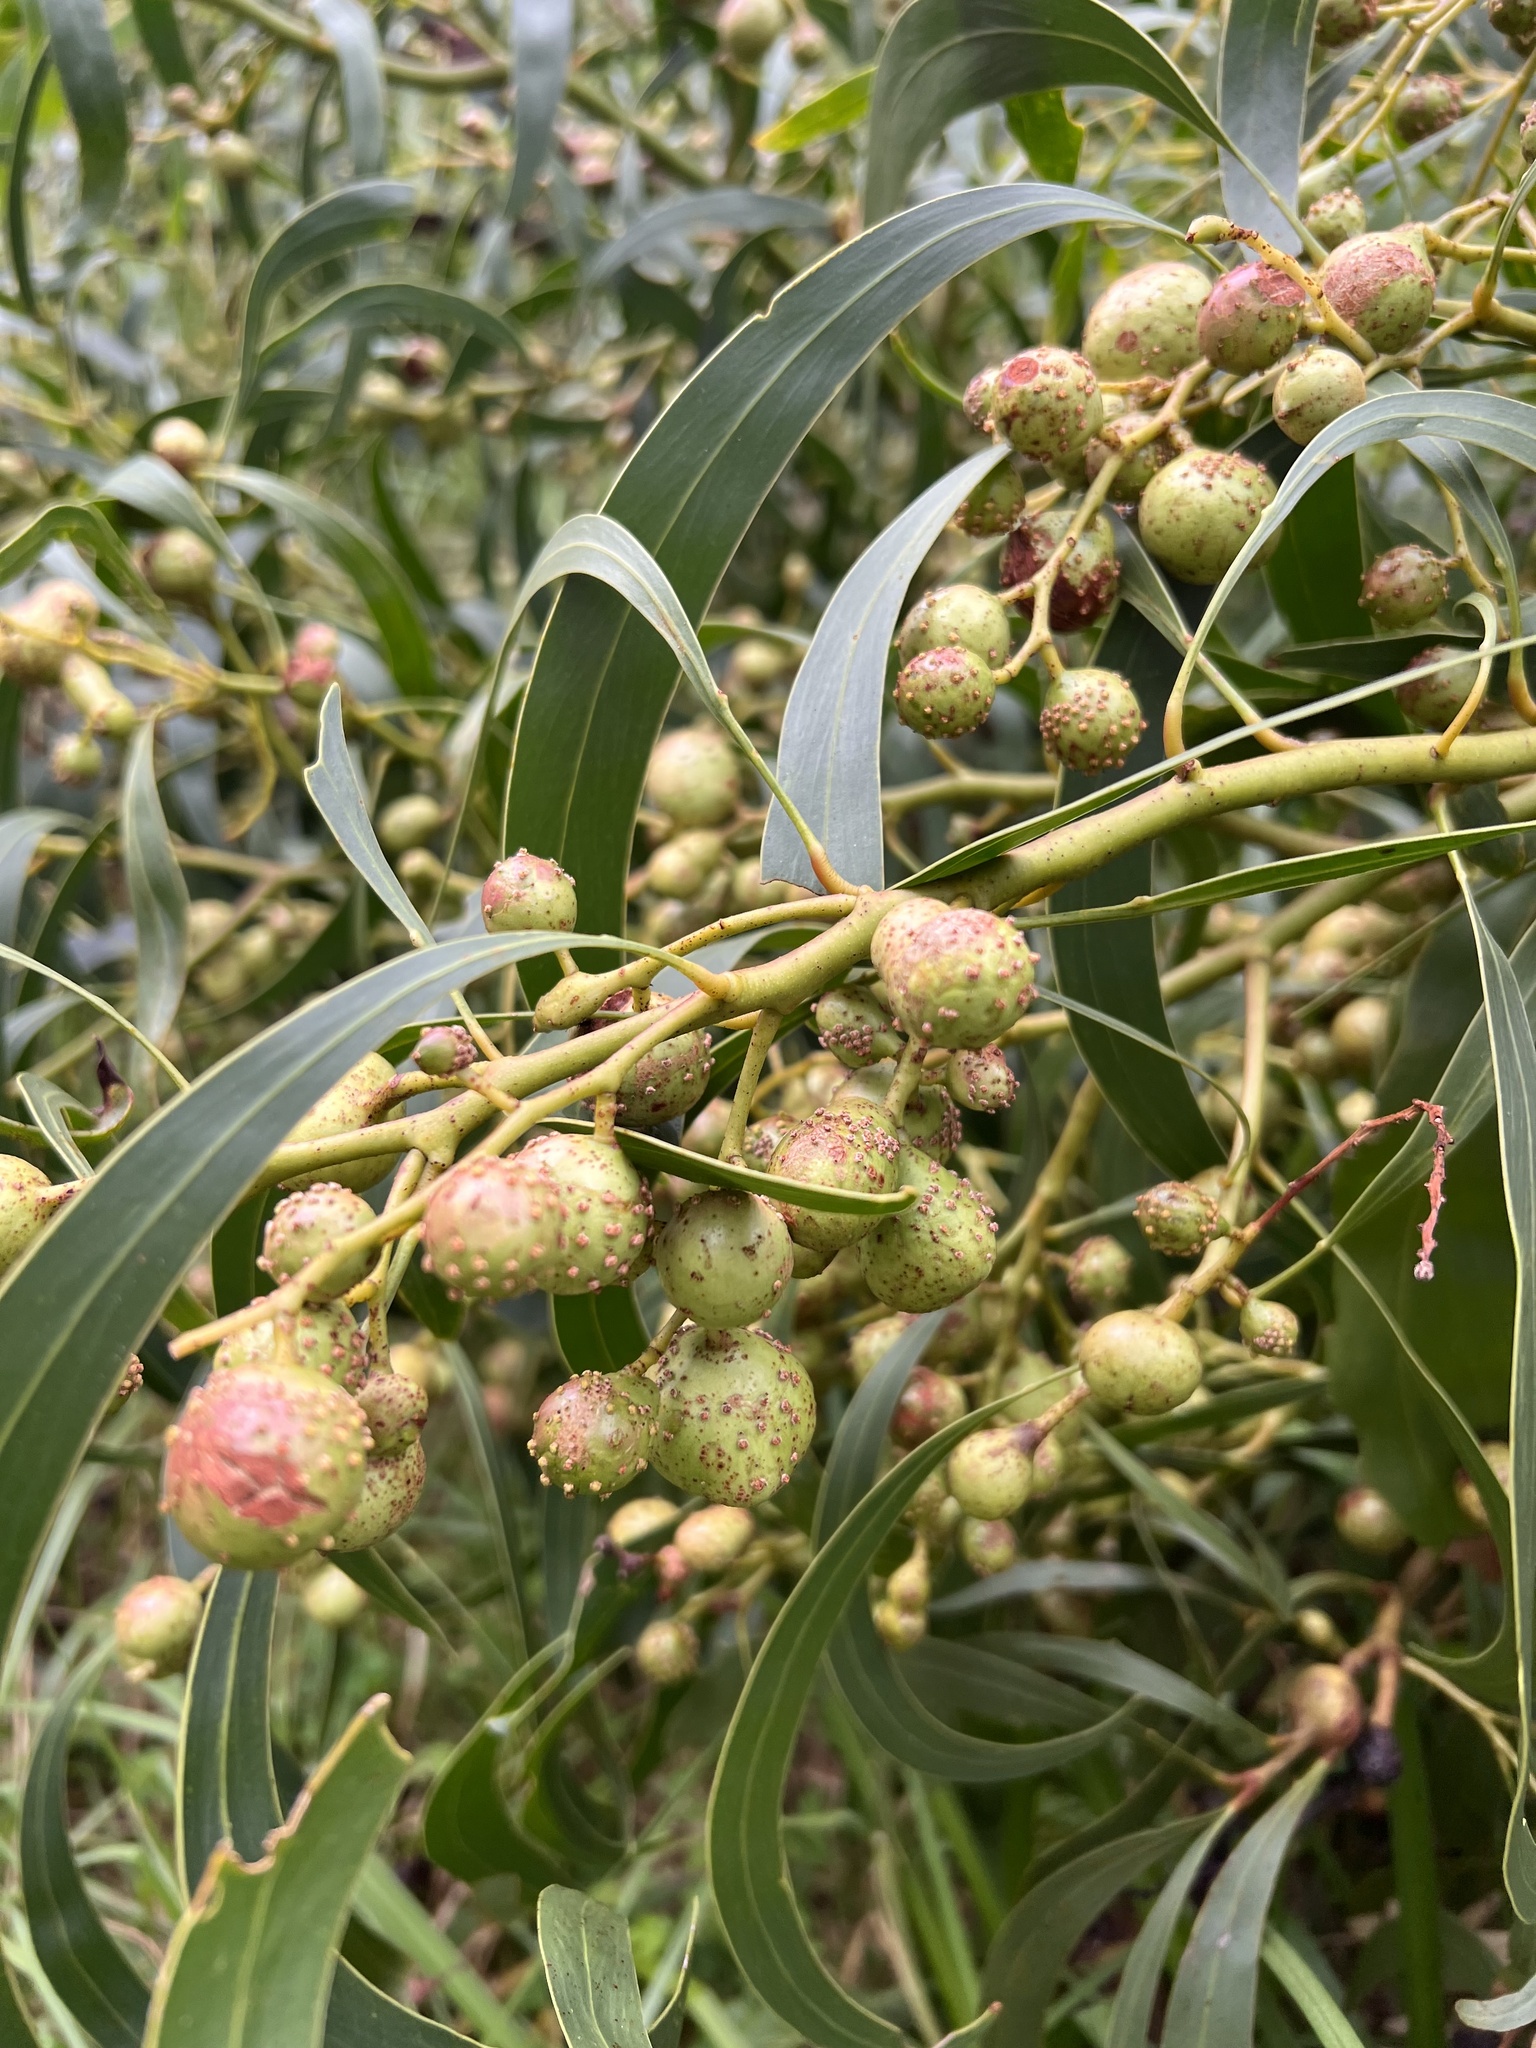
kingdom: Plantae
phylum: Tracheophyta
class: Magnoliopsida
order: Fabales
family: Fabaceae
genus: Acacia
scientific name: Acacia pycnantha
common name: Golden wattle
